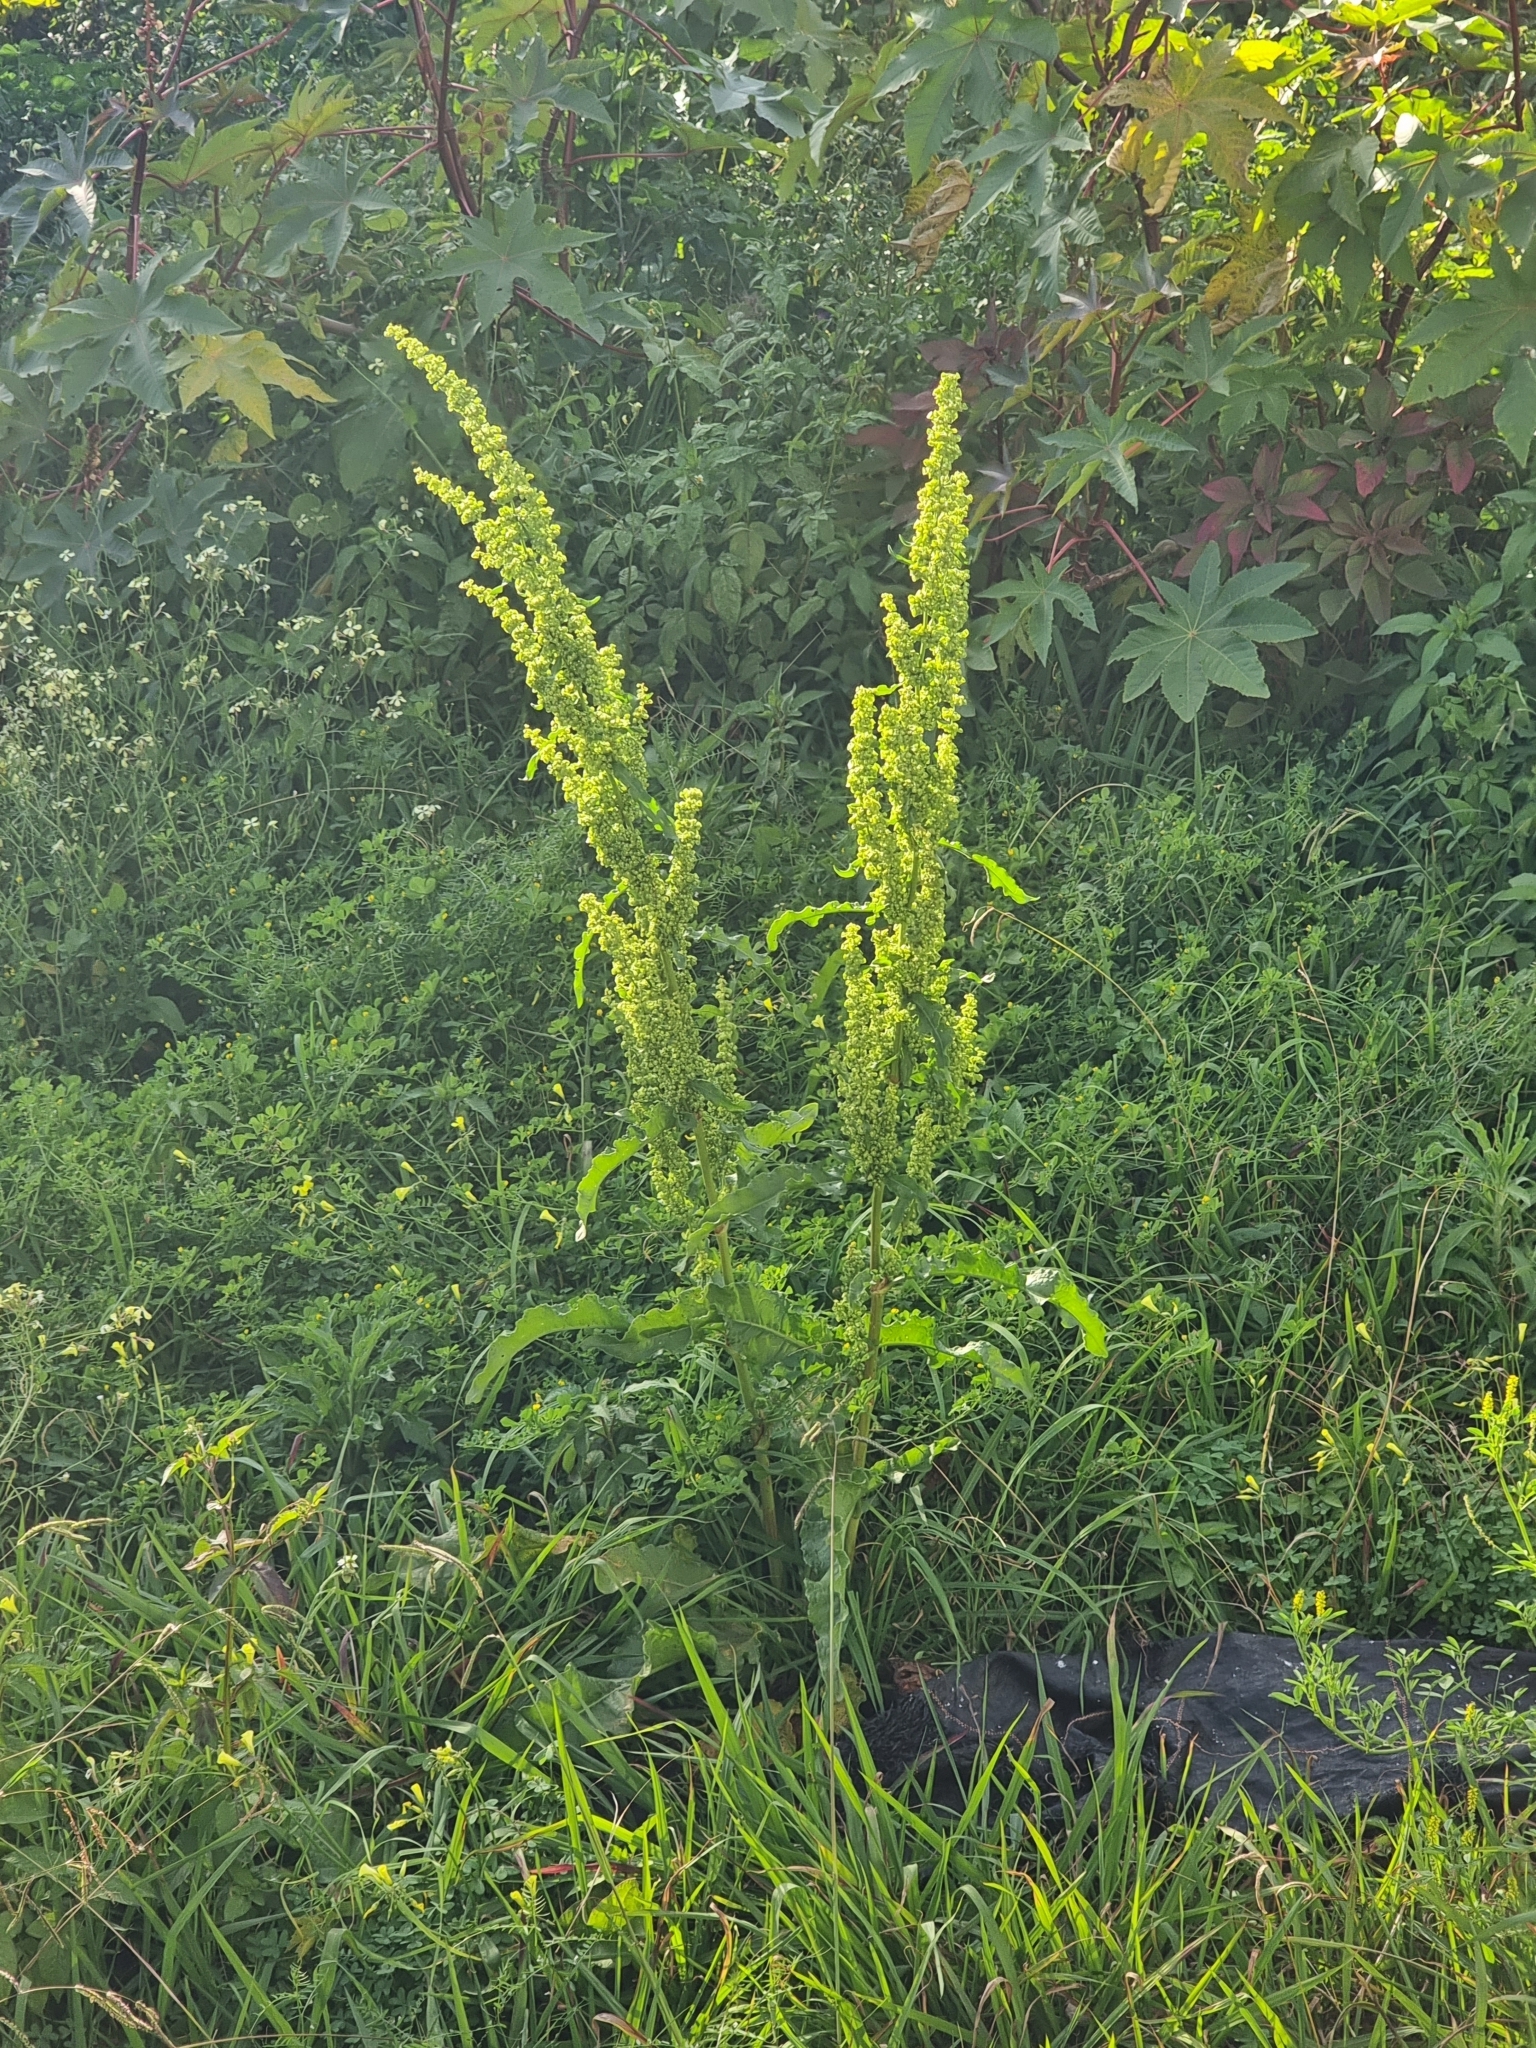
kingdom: Plantae
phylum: Tracheophyta
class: Magnoliopsida
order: Caryophyllales
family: Polygonaceae
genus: Rumex
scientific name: Rumex crispus
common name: Curled dock
